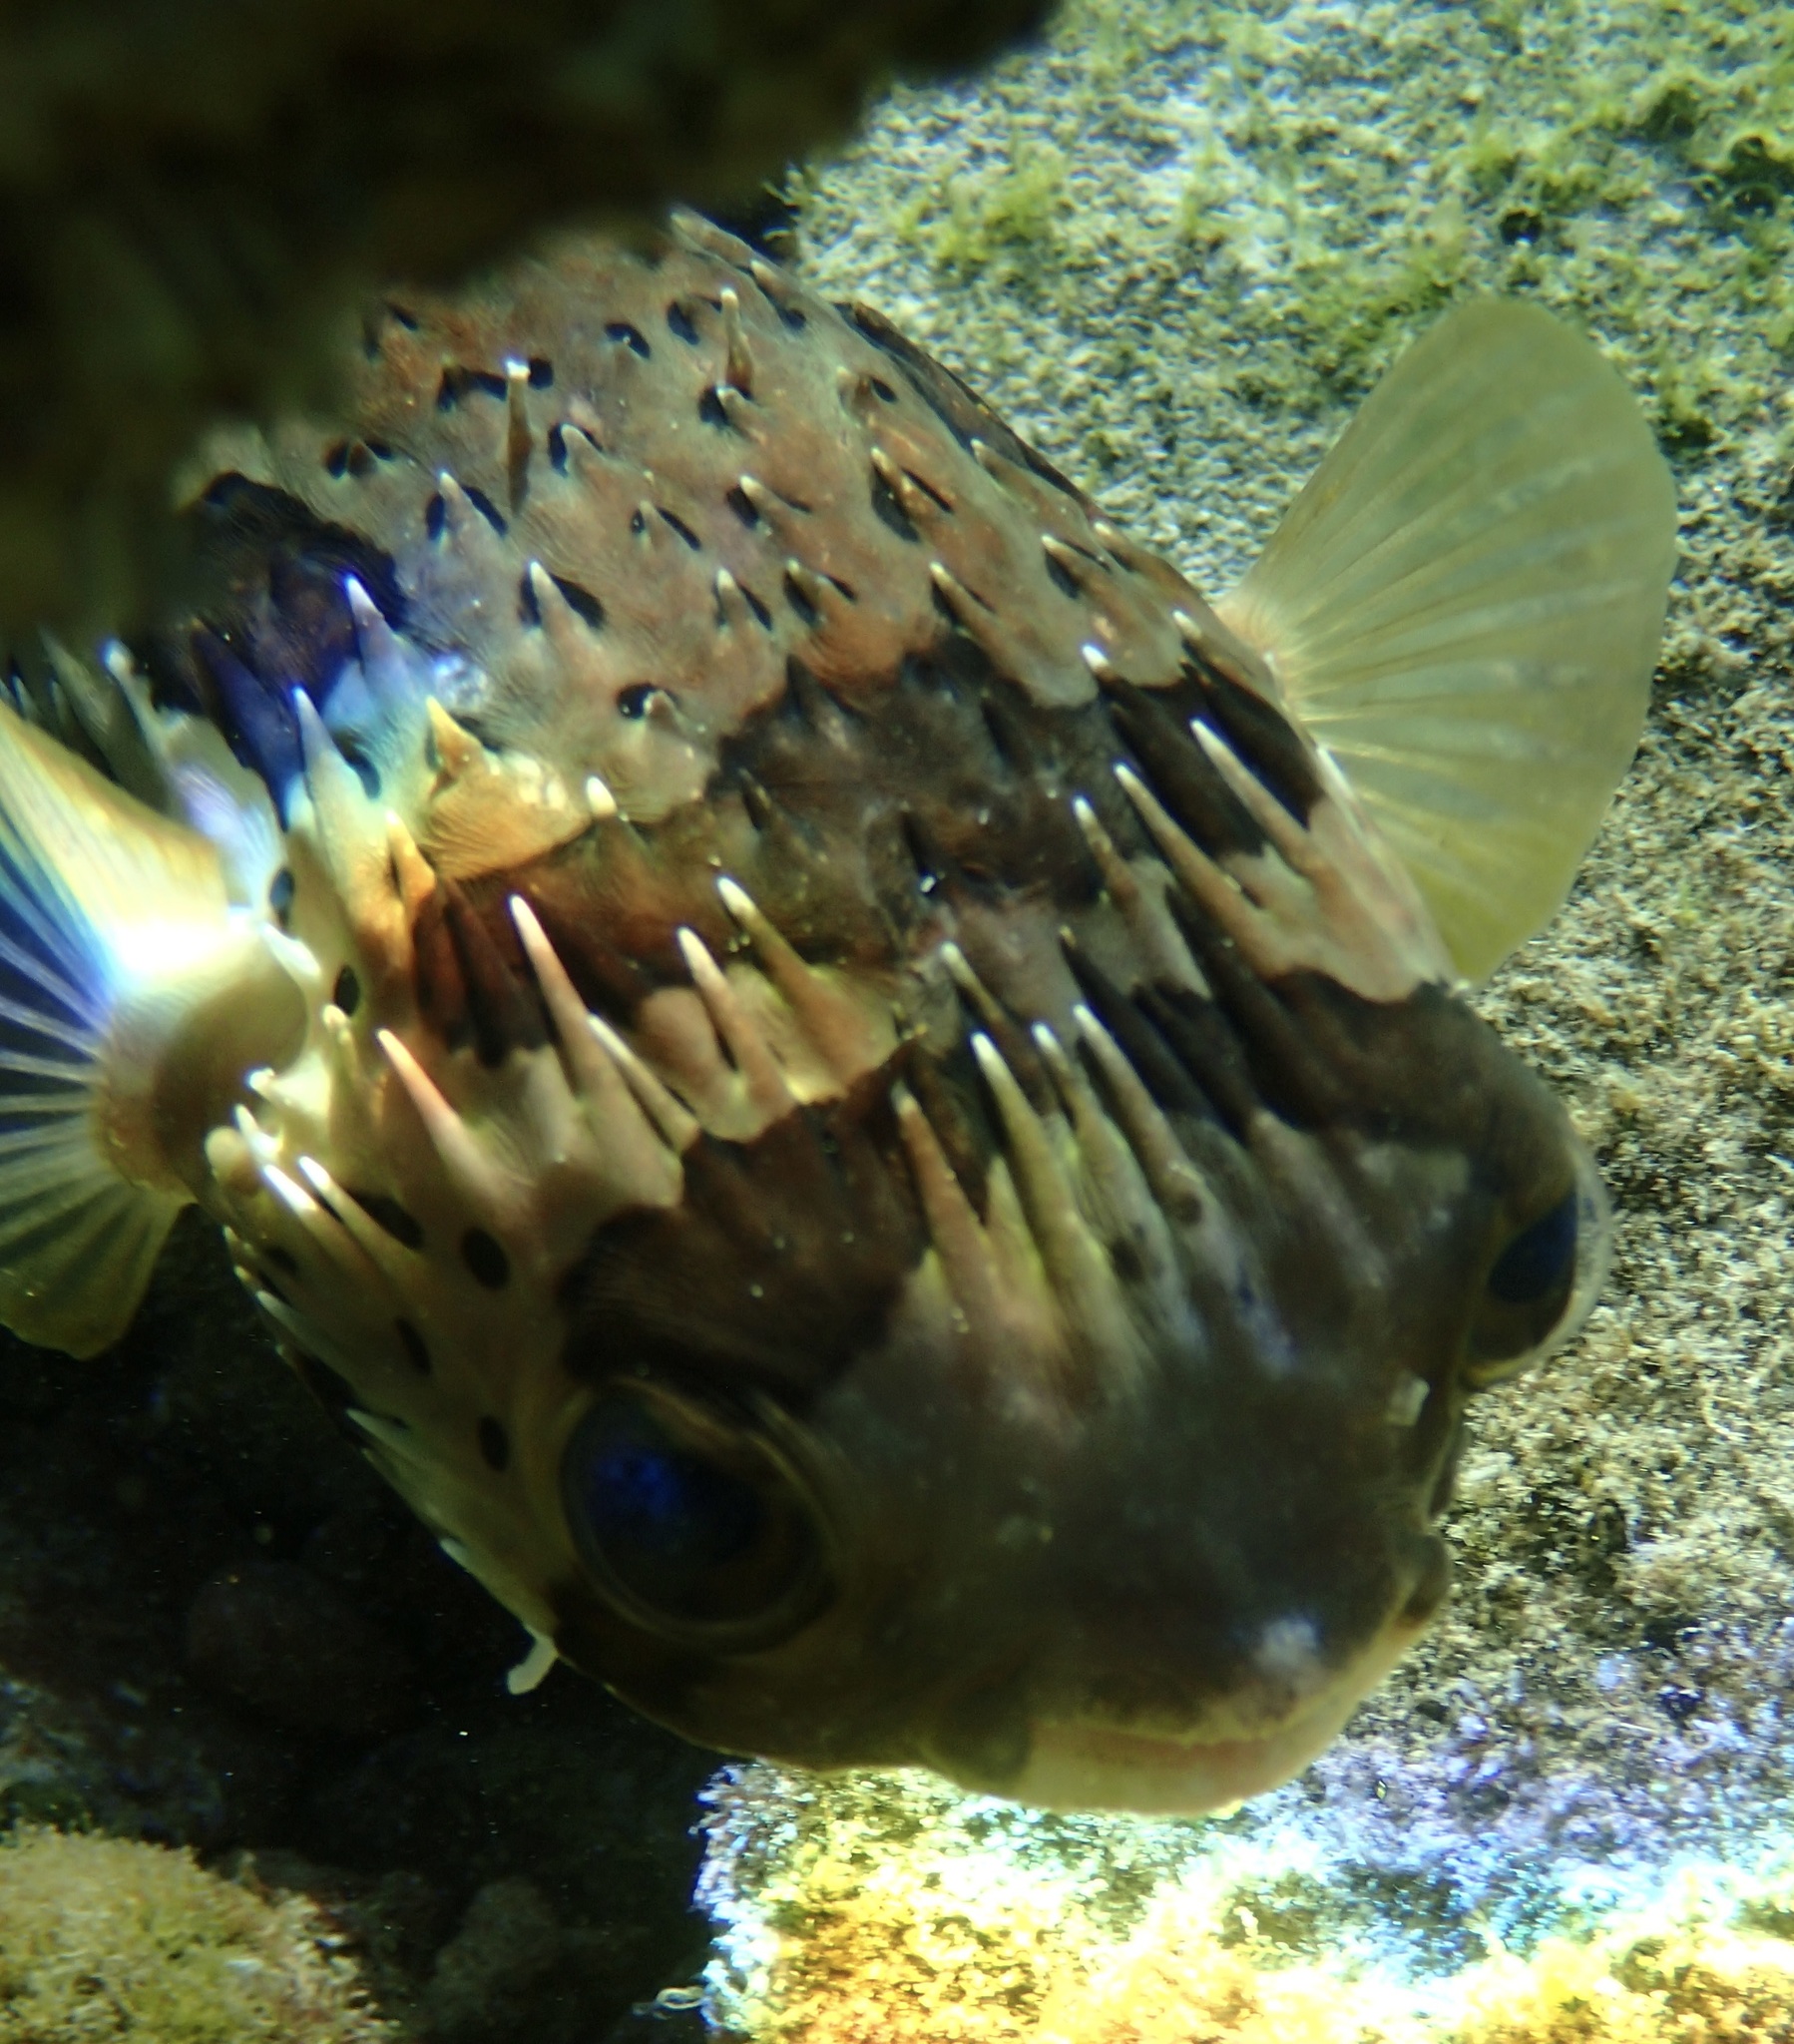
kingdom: Animalia
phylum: Chordata
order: Tetraodontiformes
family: Diodontidae
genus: Diodon
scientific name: Diodon holocanthus
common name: Balloonfish
